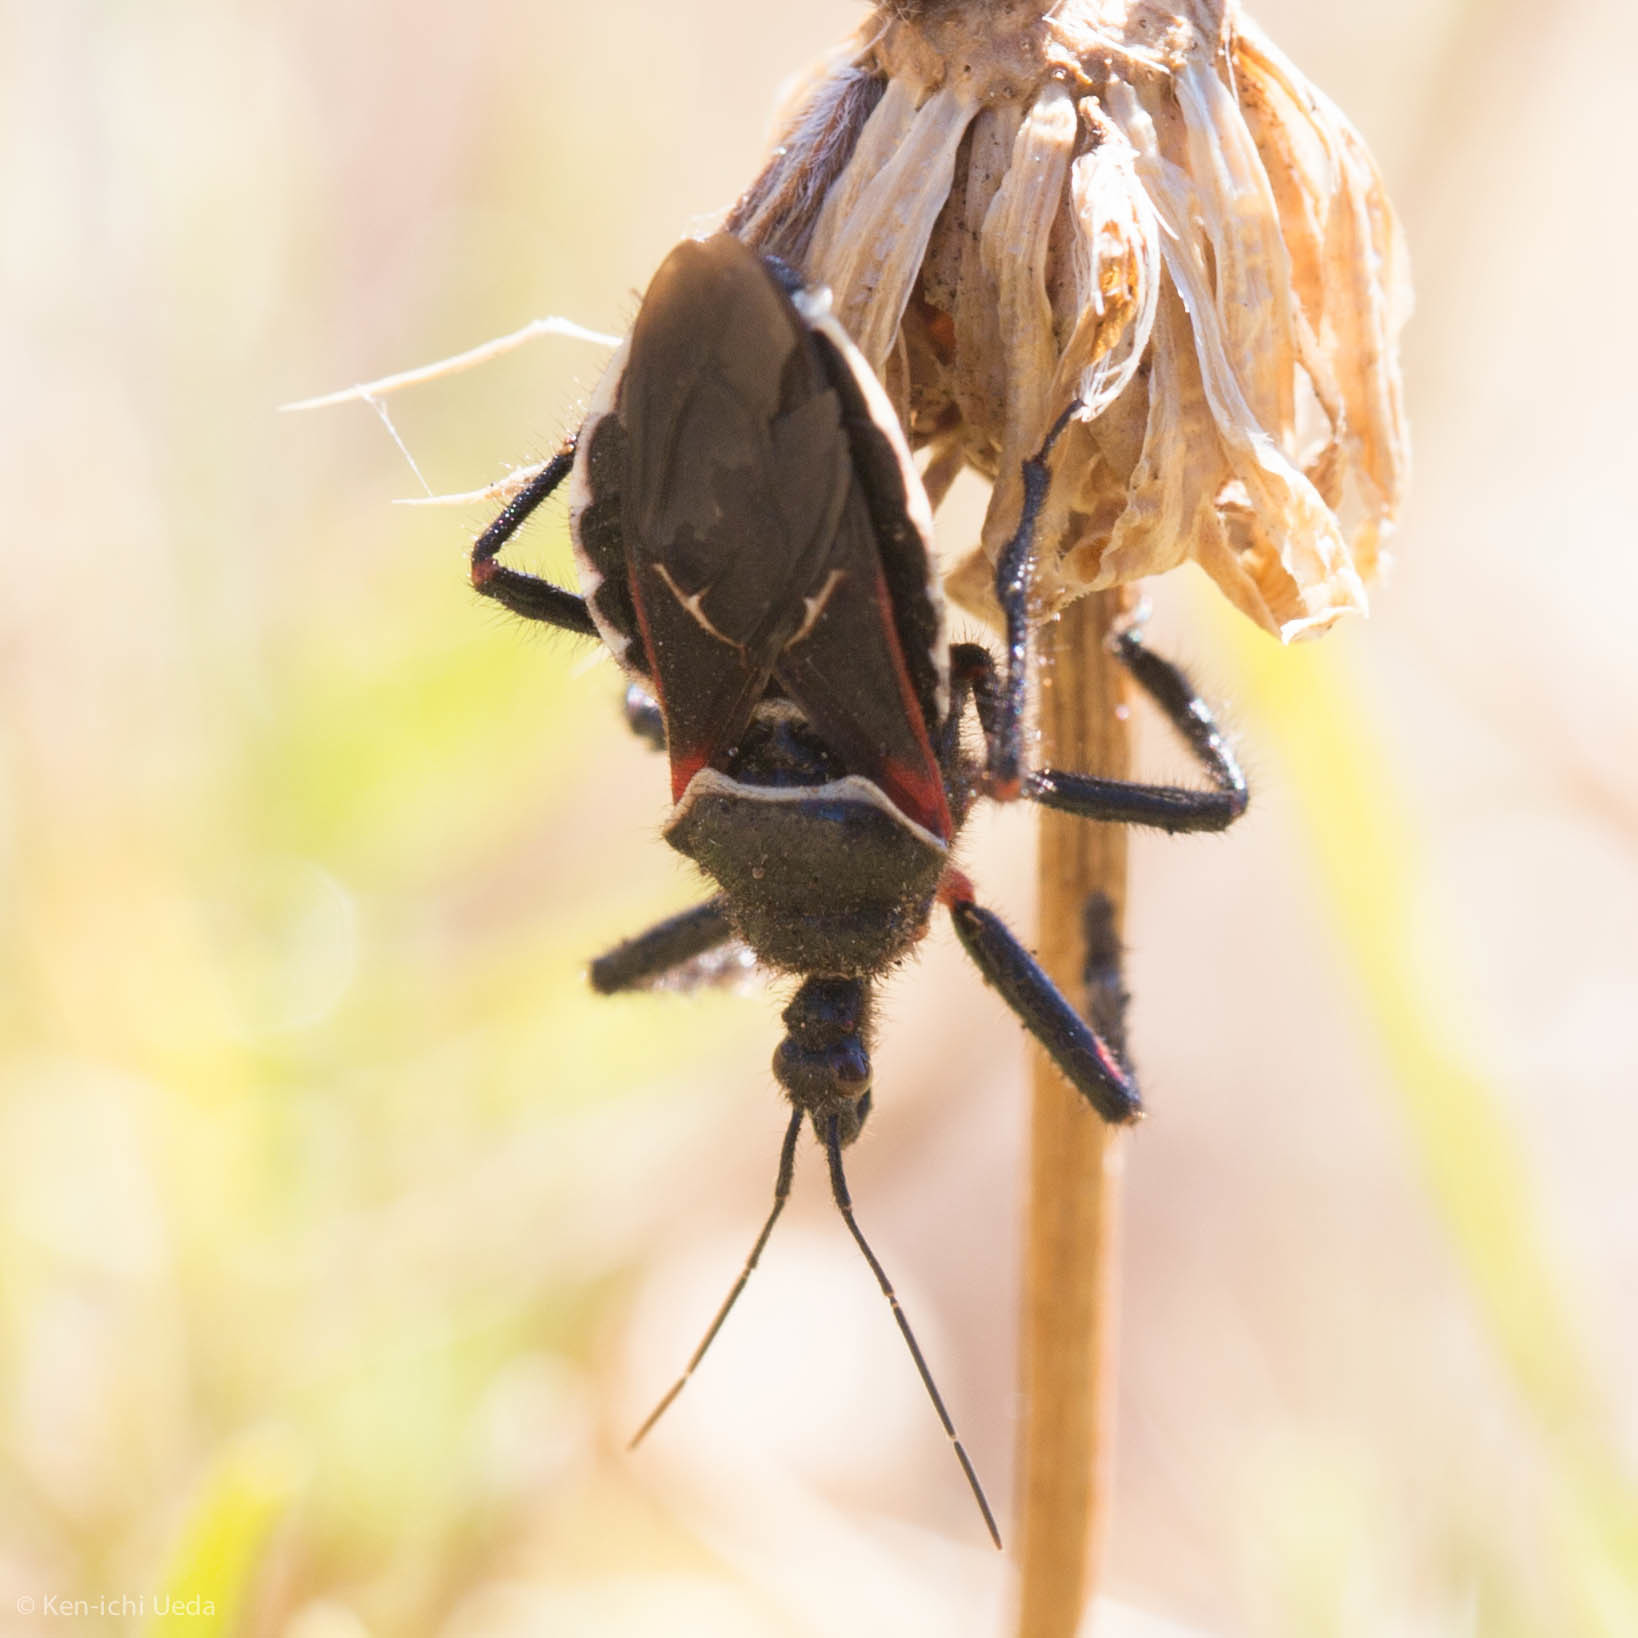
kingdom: Animalia
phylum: Arthropoda
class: Insecta
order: Hemiptera
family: Reduviidae
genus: Apiomerus
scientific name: Apiomerus californicus
